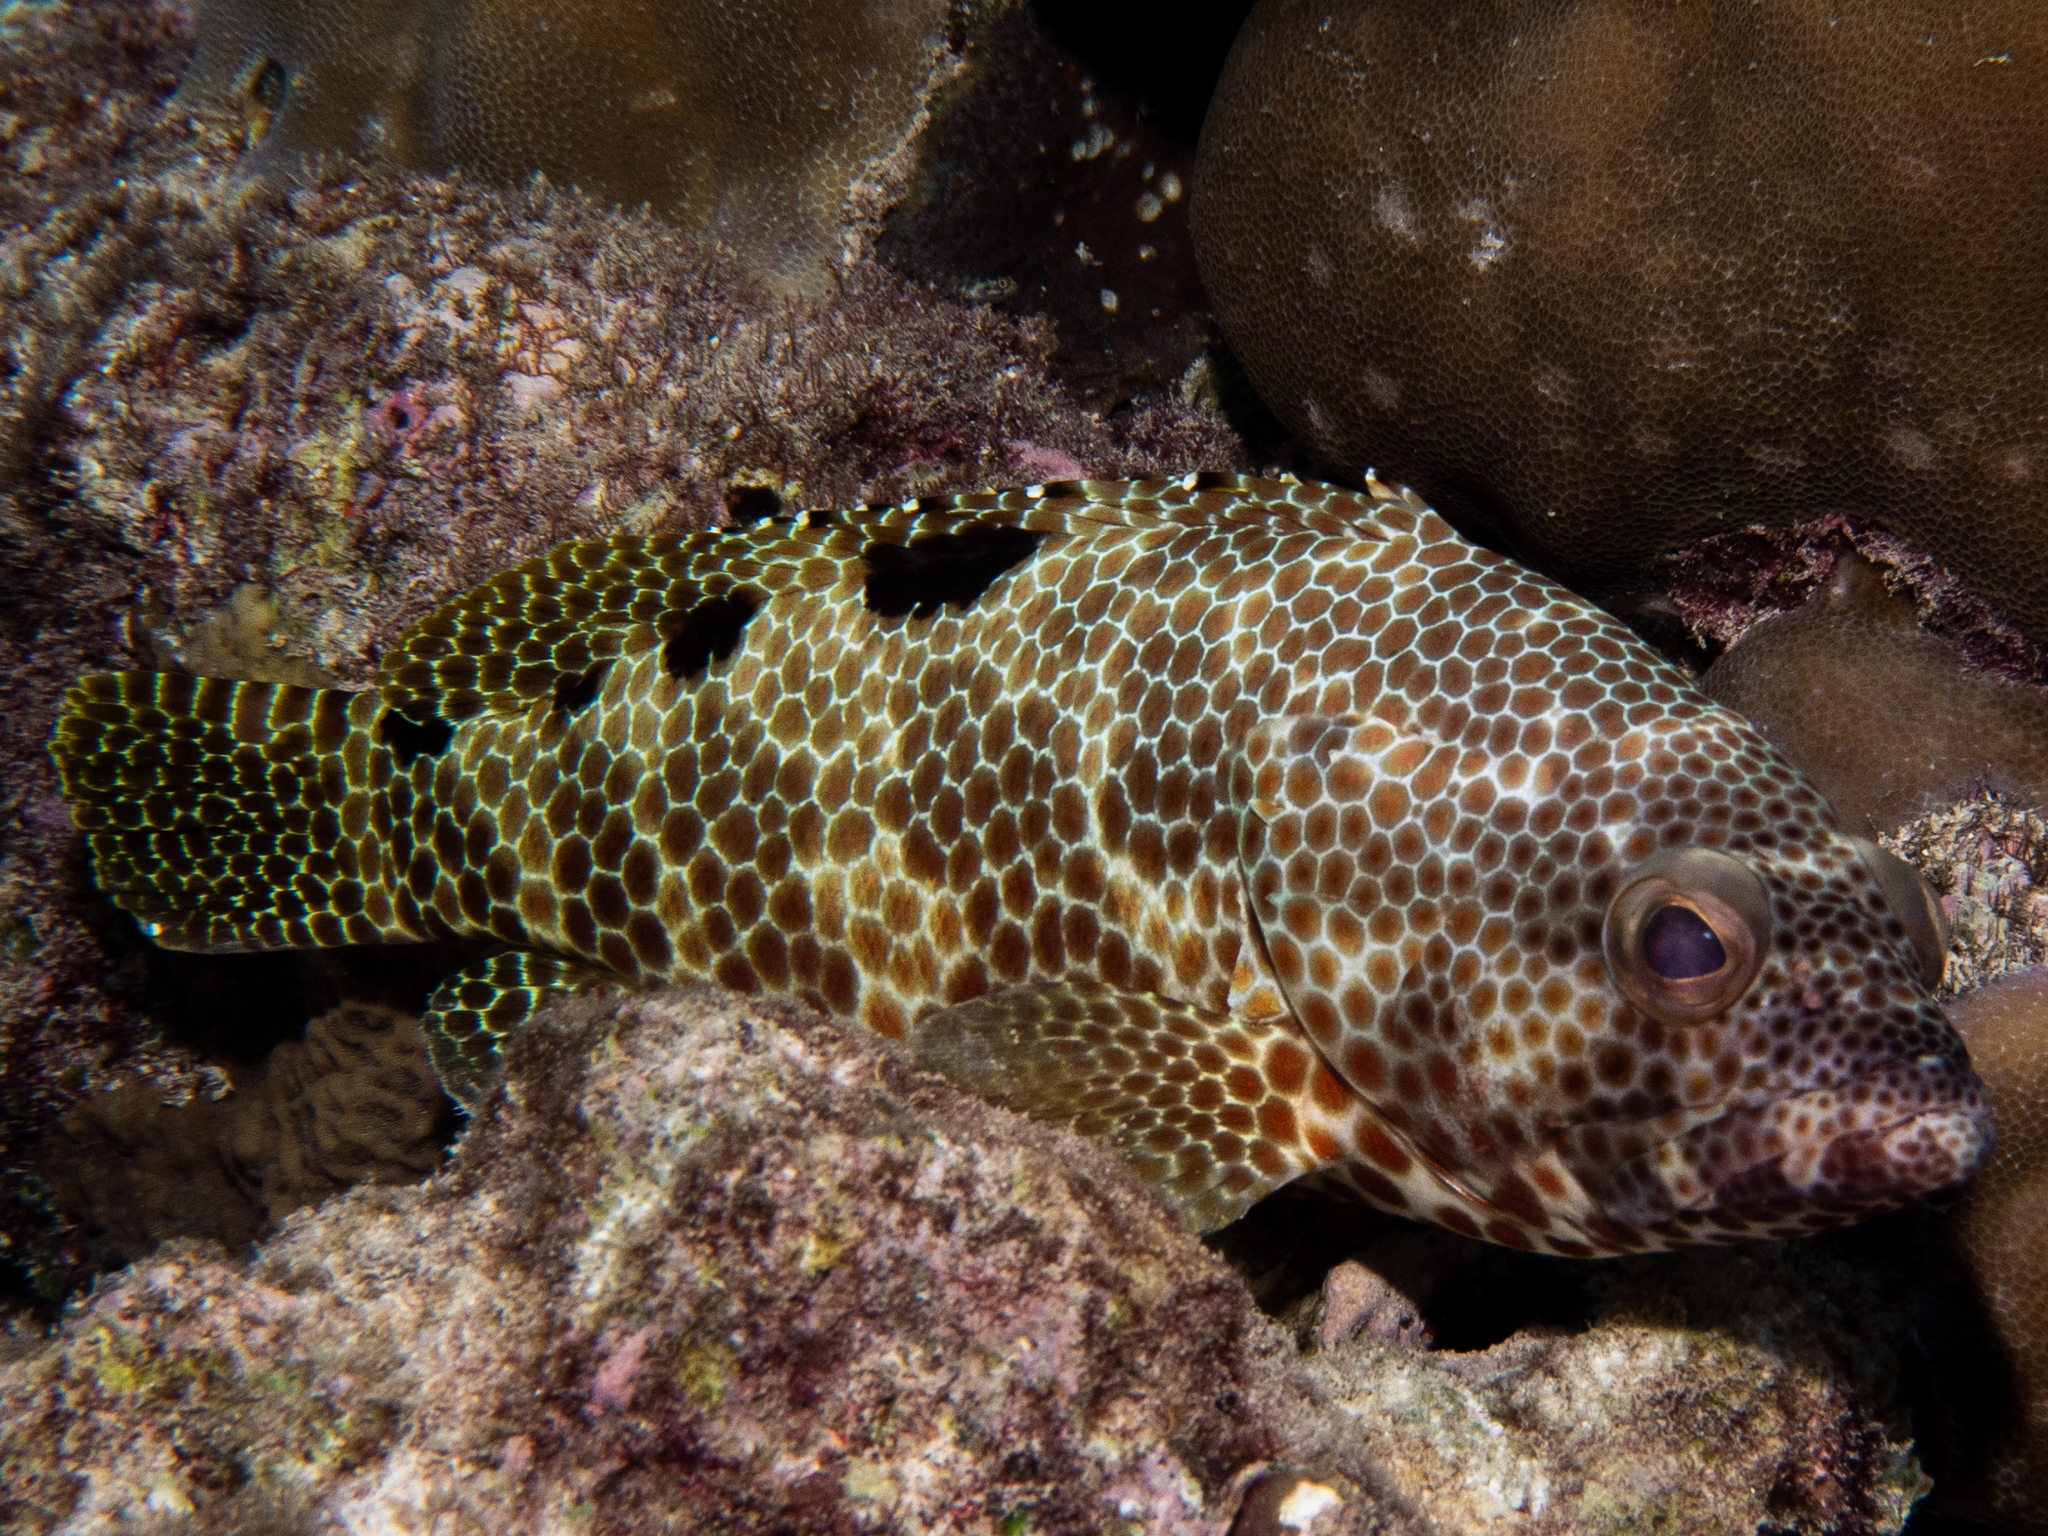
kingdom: Animalia
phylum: Chordata
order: Perciformes
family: Serranidae
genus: Epinephelus
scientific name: Epinephelus spilotoceps
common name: Foursaddle grouper
